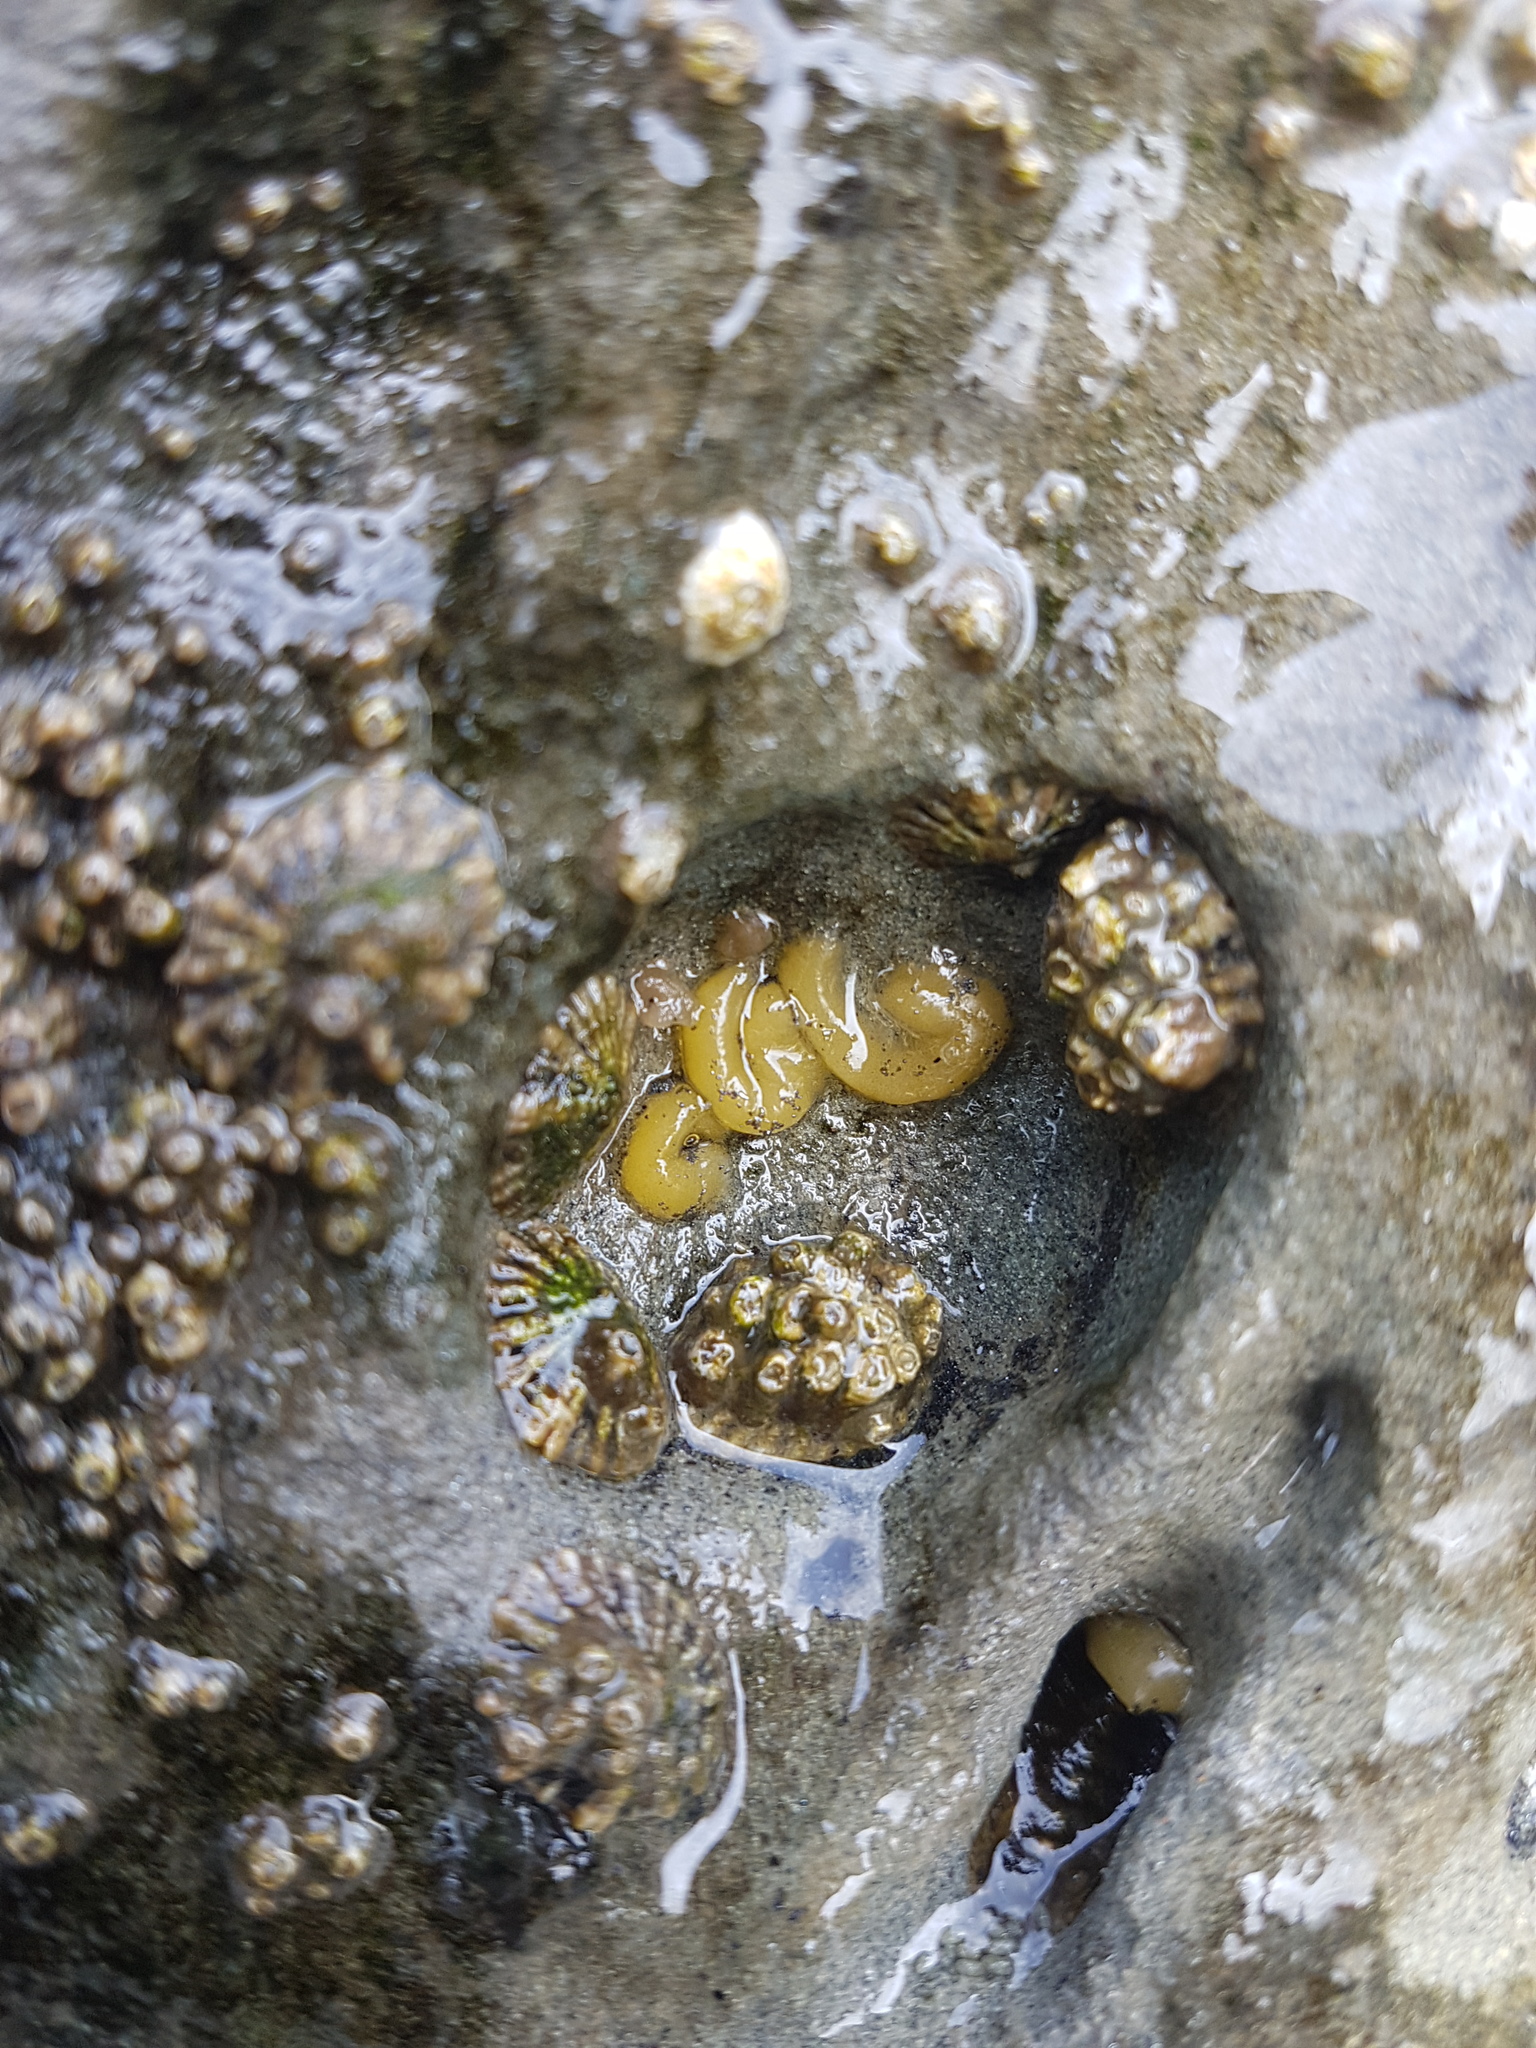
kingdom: Animalia
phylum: Mollusca
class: Gastropoda
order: Siphonariida
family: Siphonariidae
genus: Siphonaria
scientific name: Siphonaria australis
